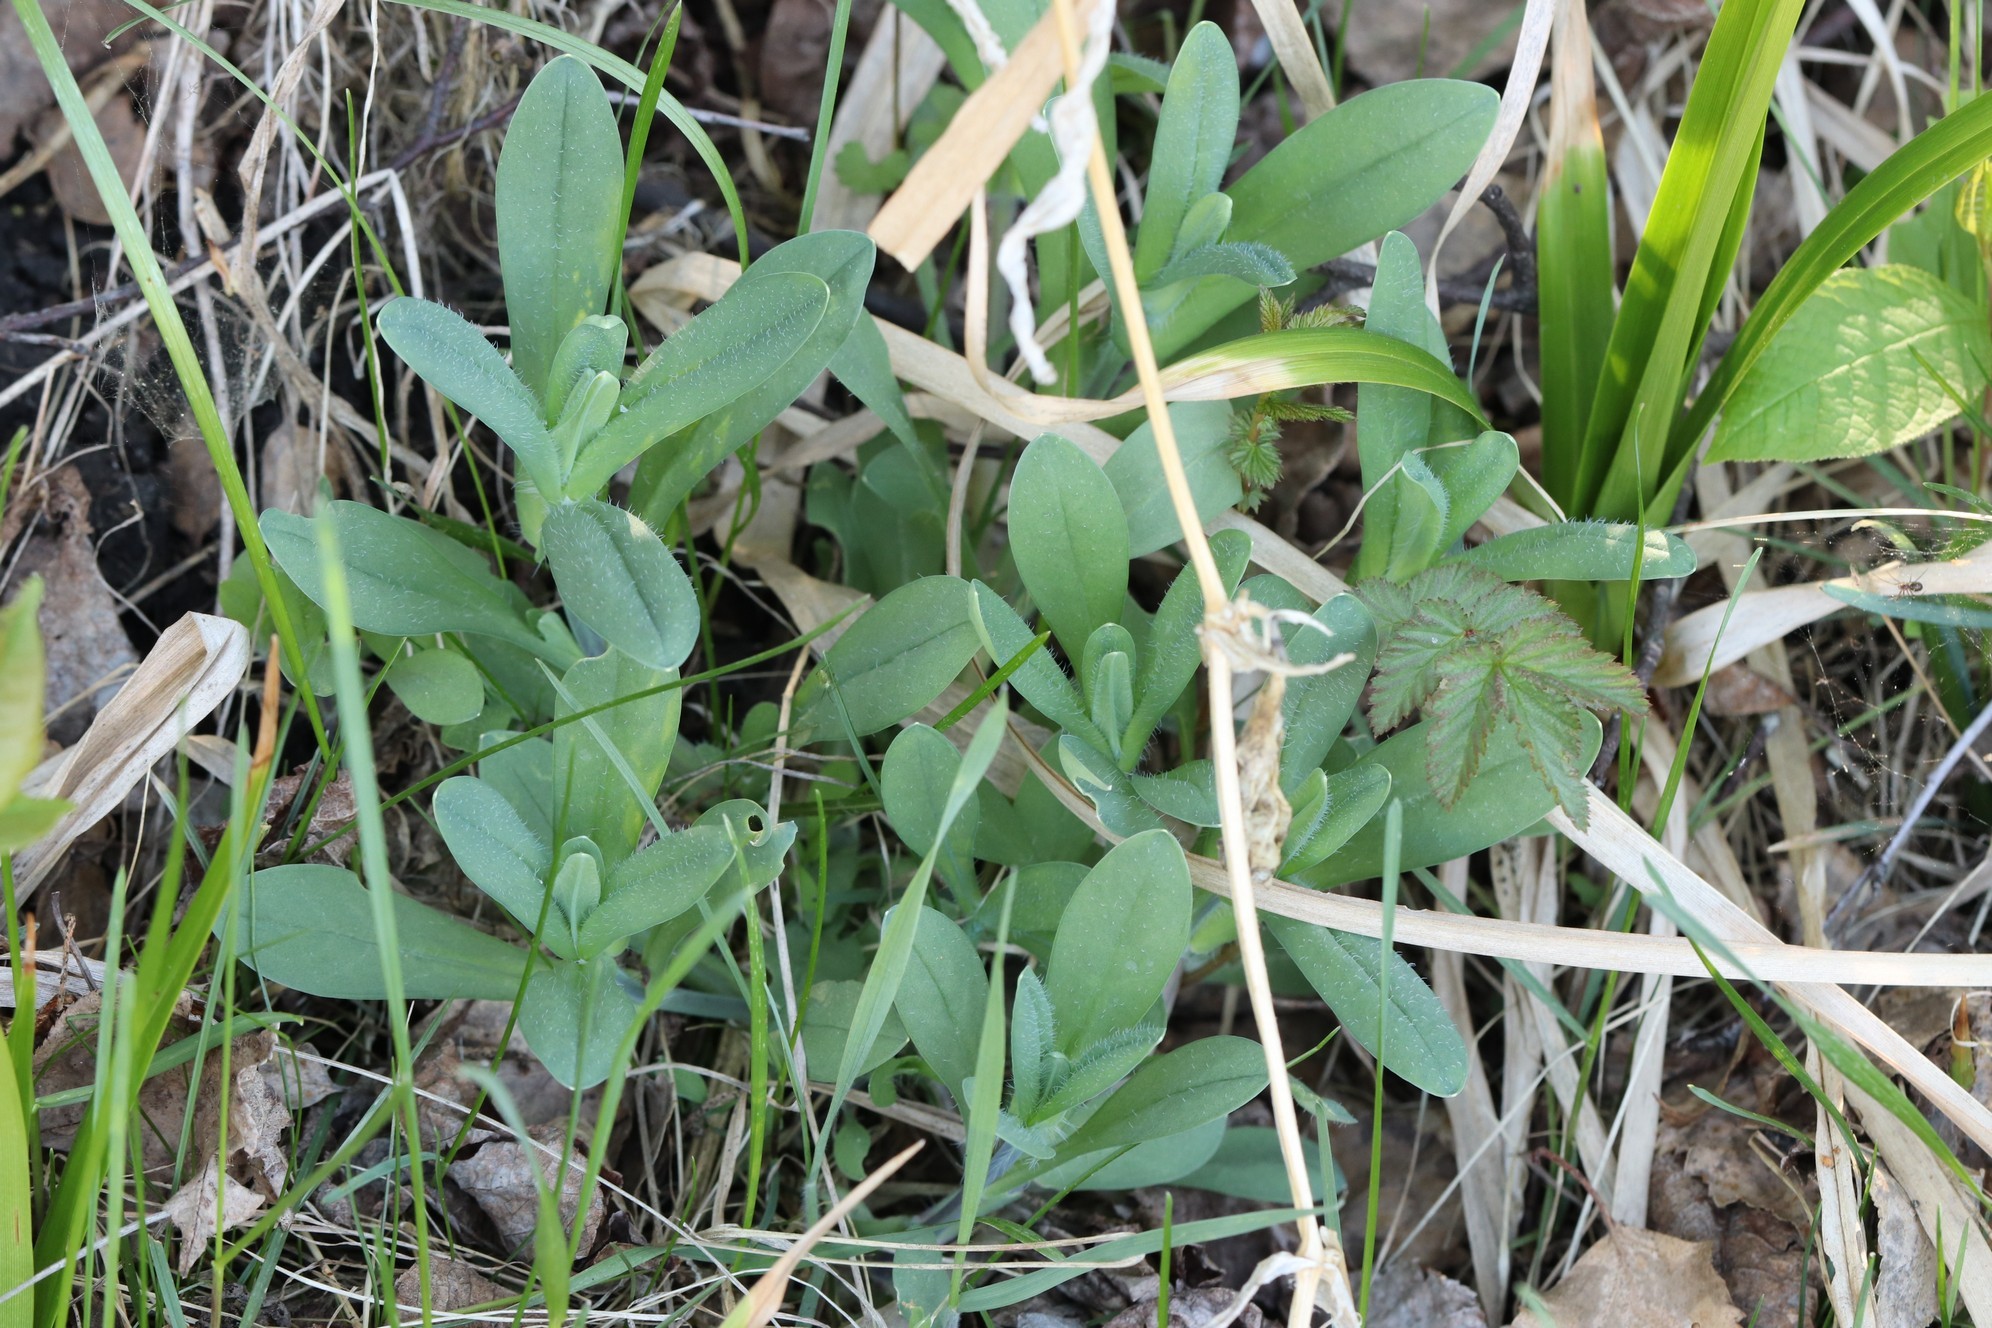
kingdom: Plantae
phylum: Tracheophyta
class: Magnoliopsida
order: Caryophyllales
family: Caryophyllaceae
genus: Silene
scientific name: Silene vulgaris
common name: Bladder campion
